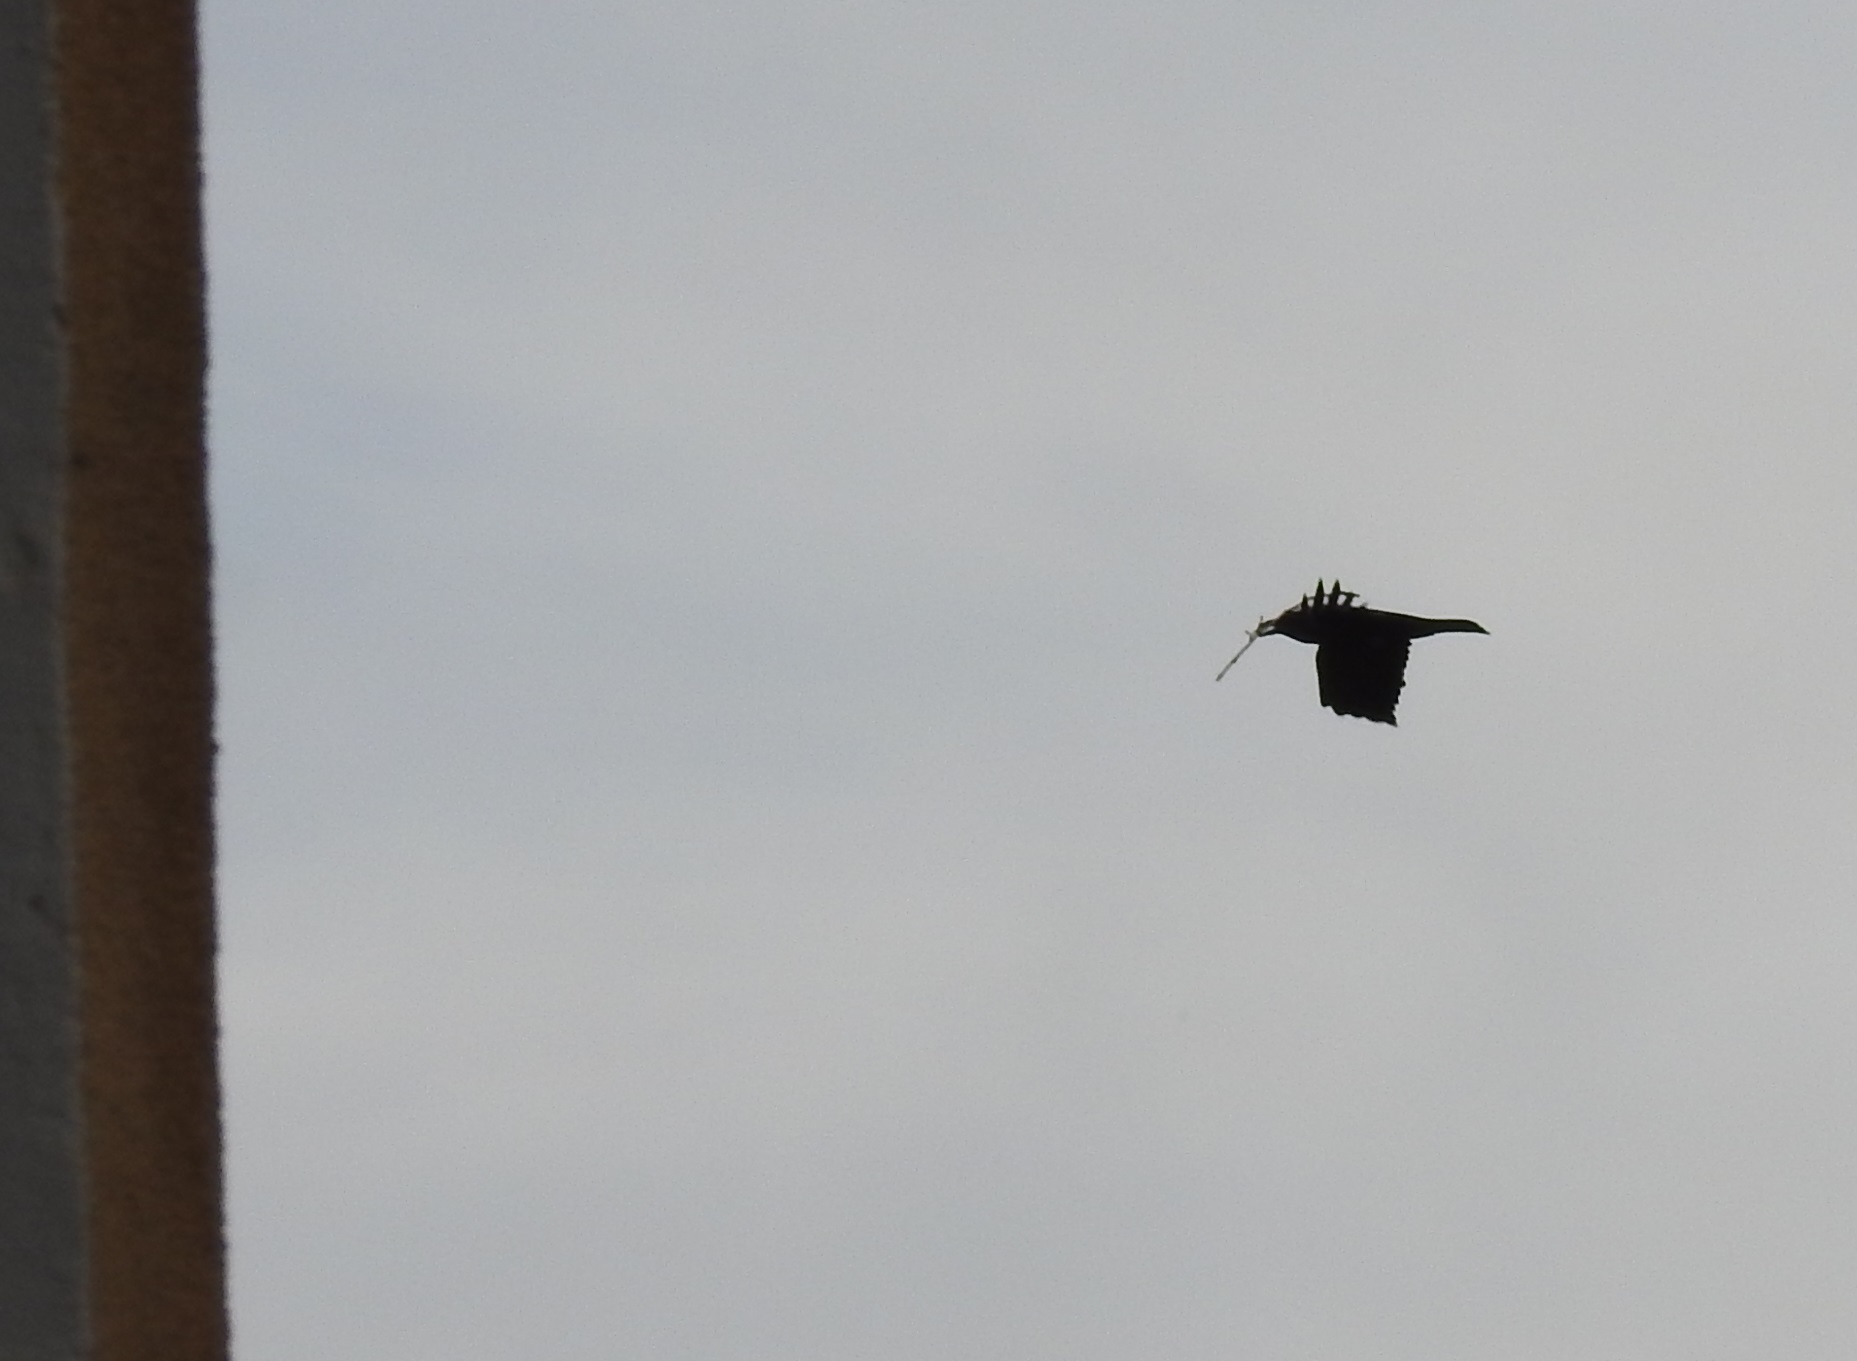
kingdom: Animalia
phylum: Chordata
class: Aves
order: Passeriformes
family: Corvidae
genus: Corvus
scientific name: Corvus corax
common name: Common raven
